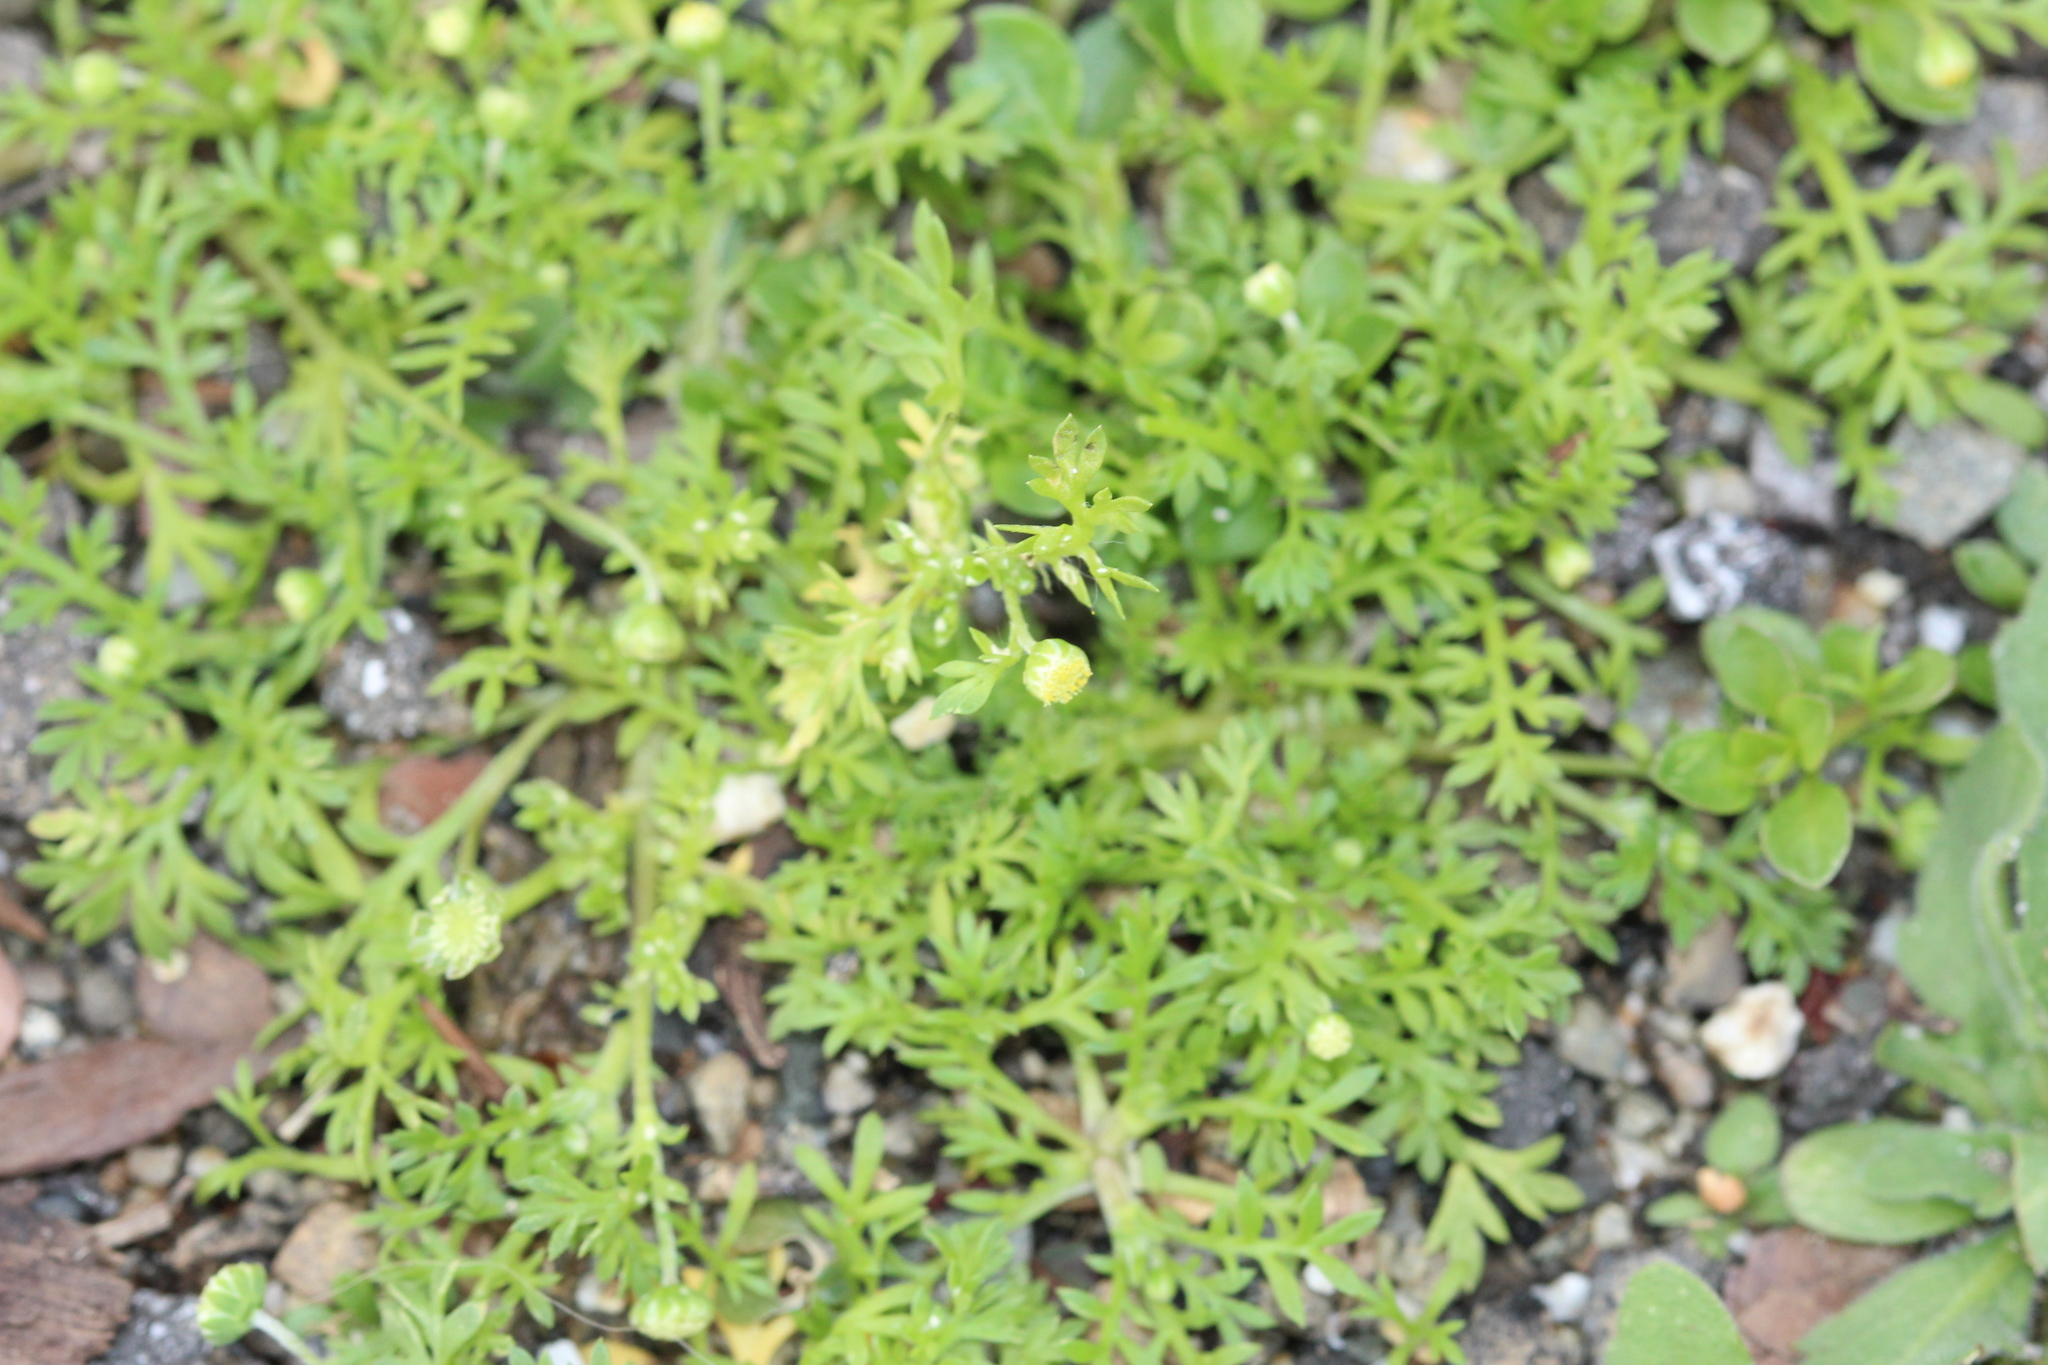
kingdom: Plantae
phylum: Tracheophyta
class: Magnoliopsida
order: Asterales
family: Asteraceae
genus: Cotula
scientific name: Cotula australis
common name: Australian waterbuttons
